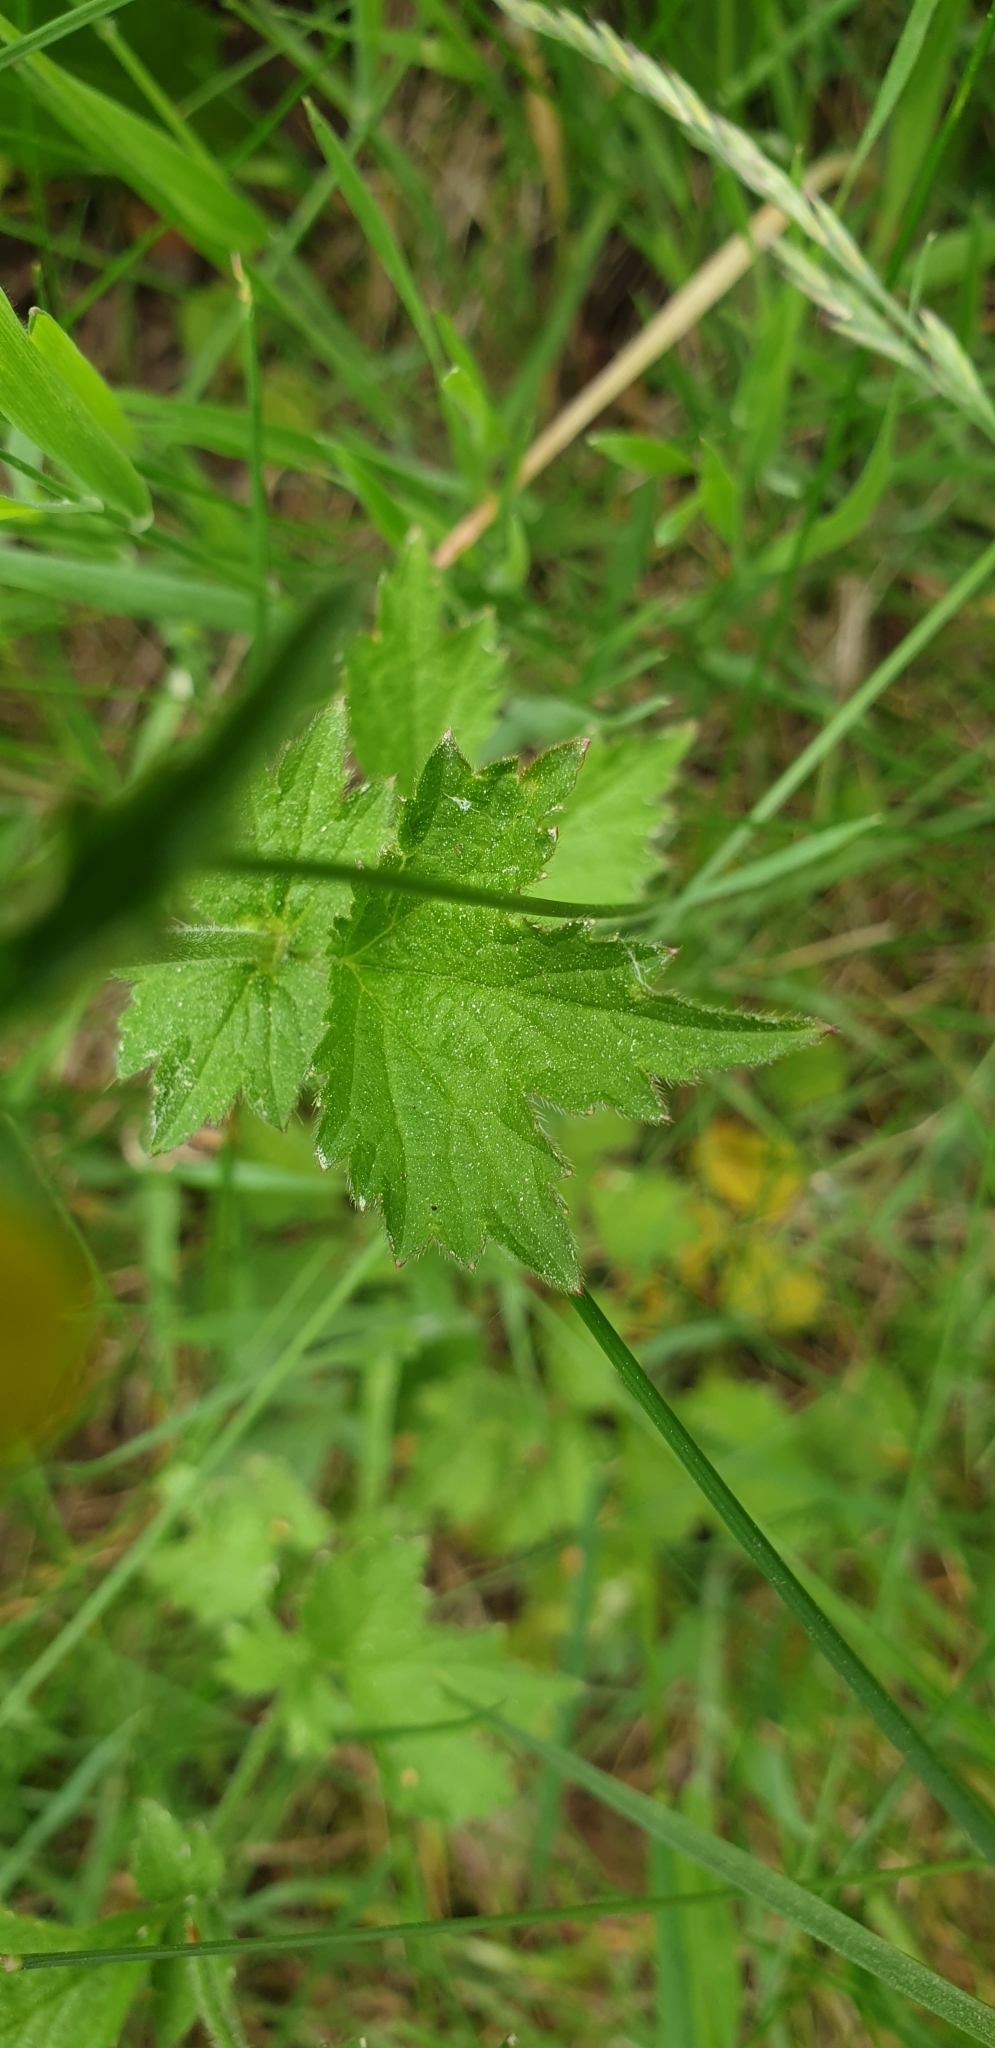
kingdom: Plantae
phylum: Tracheophyta
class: Magnoliopsida
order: Rosales
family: Rosaceae
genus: Geum
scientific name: Geum urbanum
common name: Wood avens
